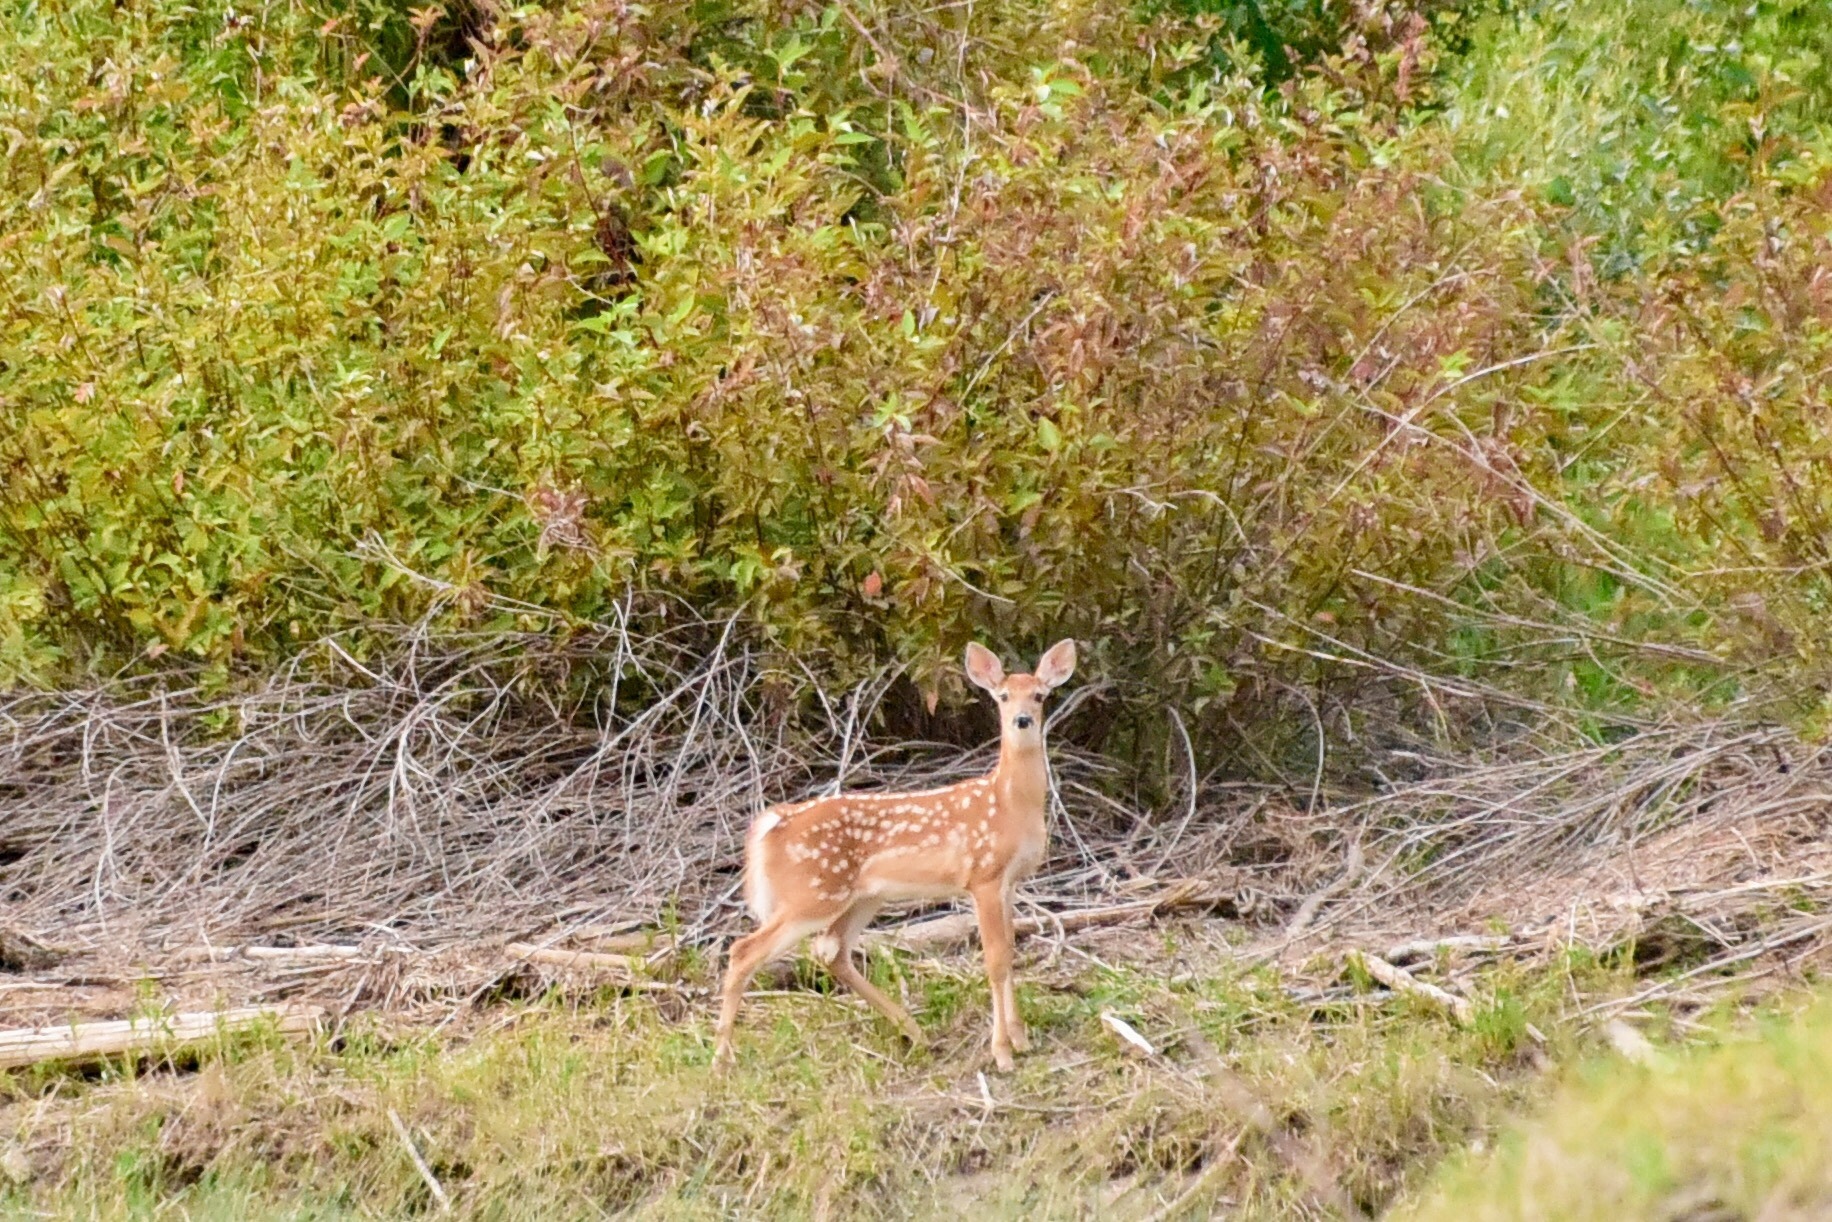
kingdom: Animalia
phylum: Chordata
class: Mammalia
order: Artiodactyla
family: Cervidae
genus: Odocoileus
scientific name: Odocoileus virginianus
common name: White-tailed deer
